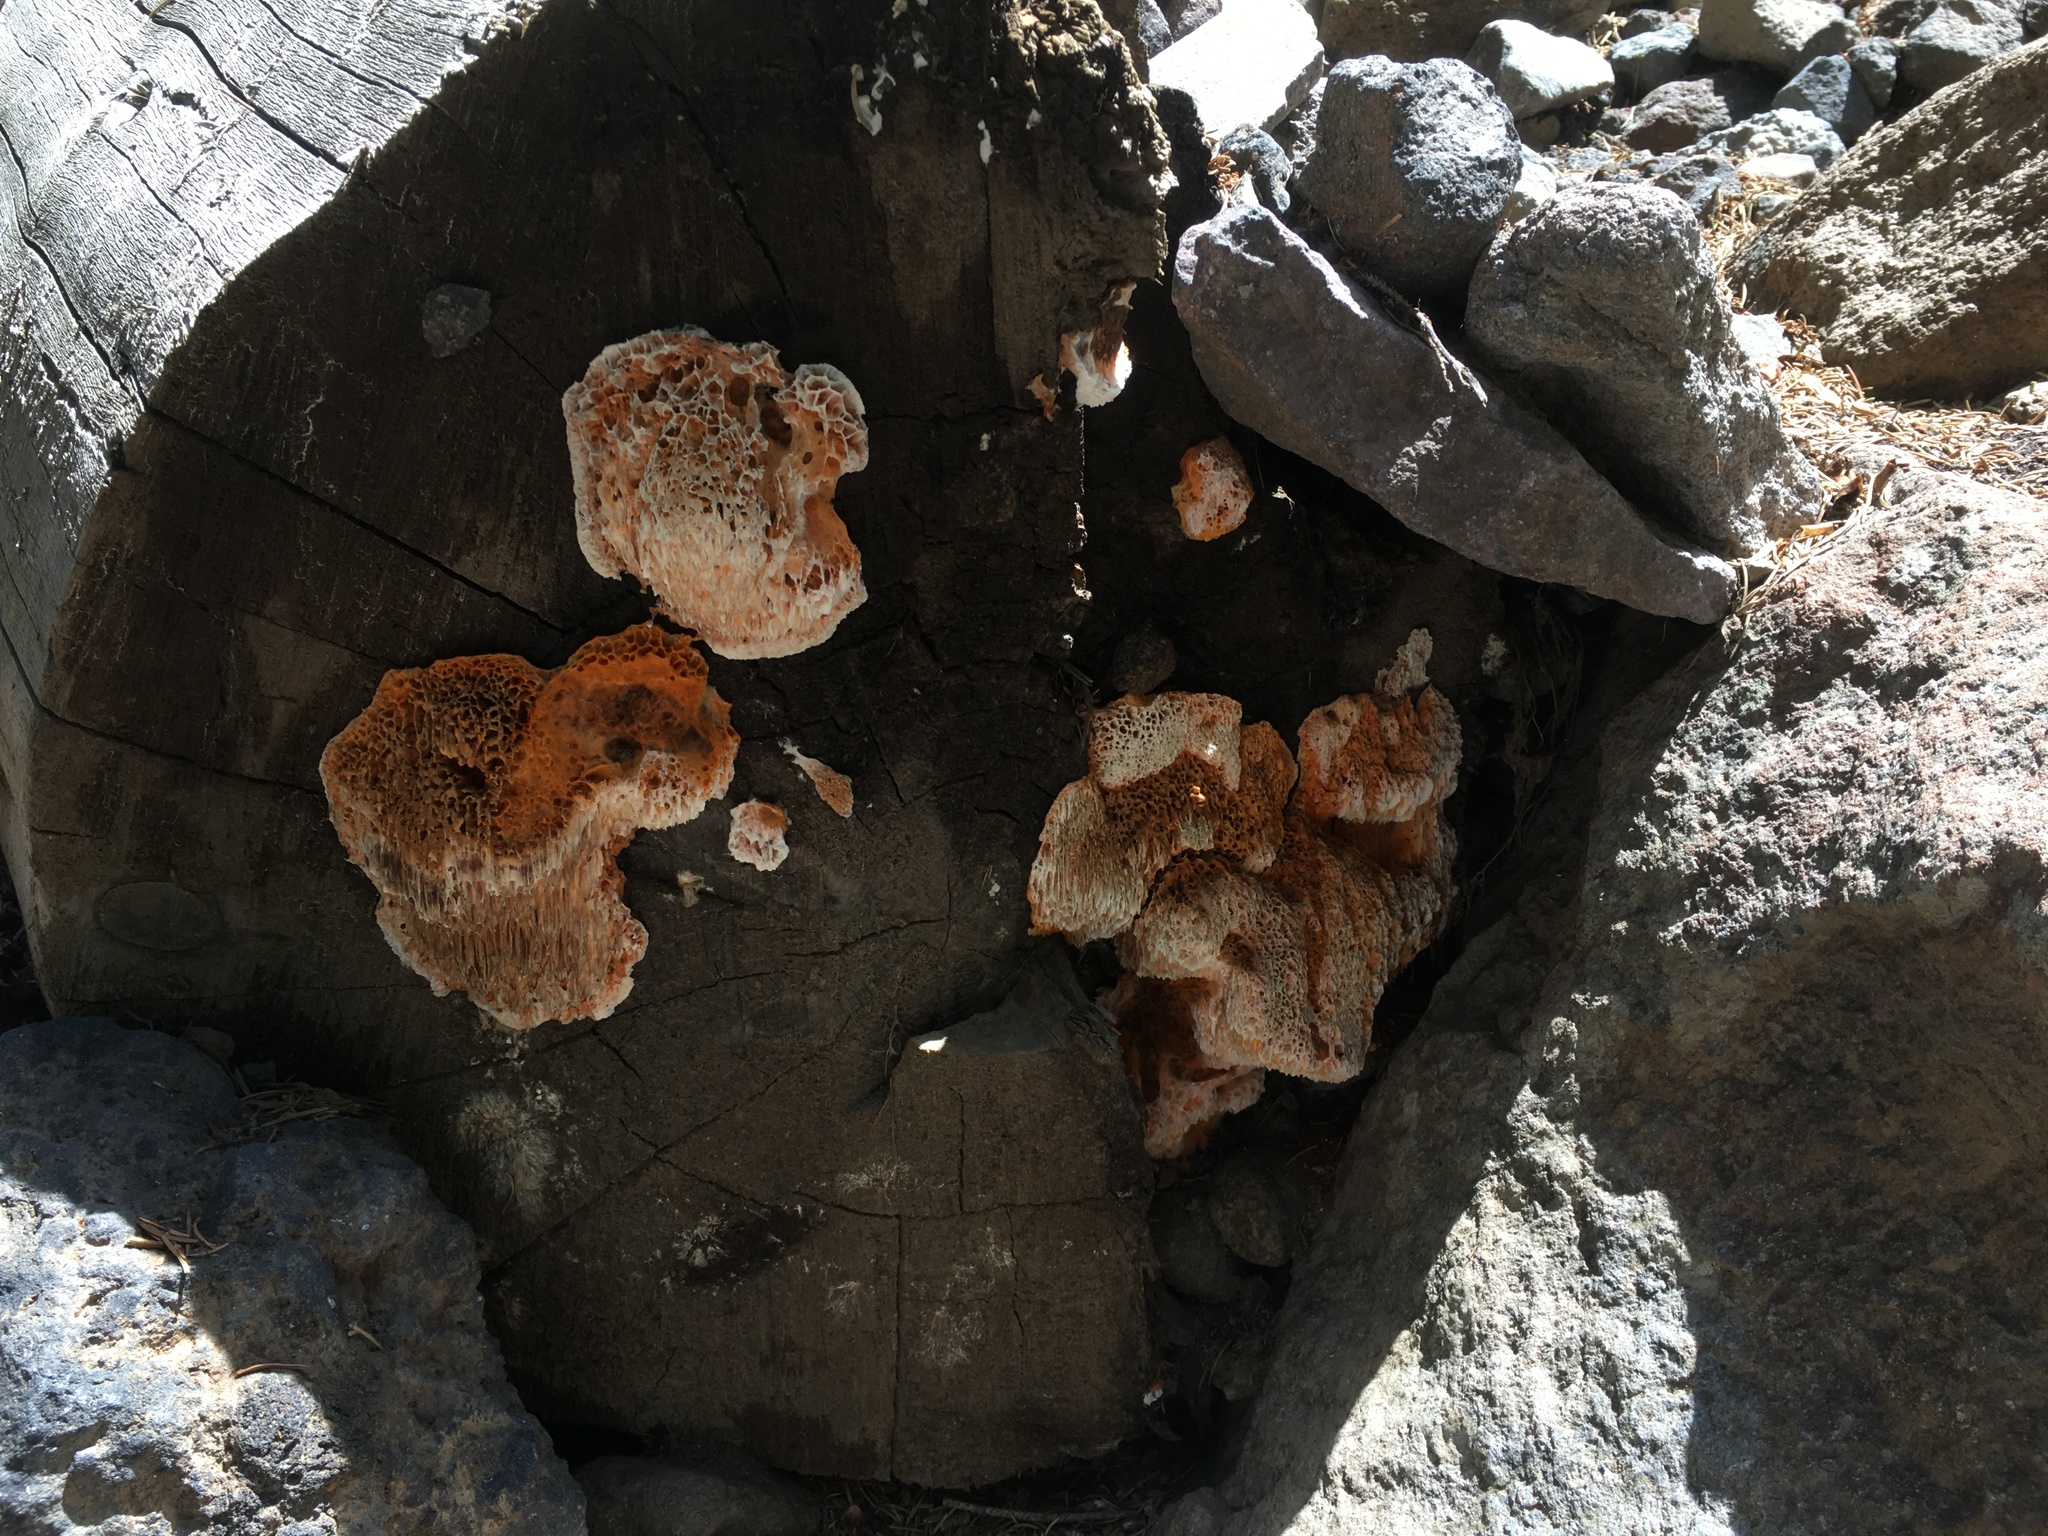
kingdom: Fungi
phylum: Basidiomycota
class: Agaricomycetes
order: Polyporales
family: Pycnoporellaceae
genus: Pycnoporellus
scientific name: Pycnoporellus alboluteus
